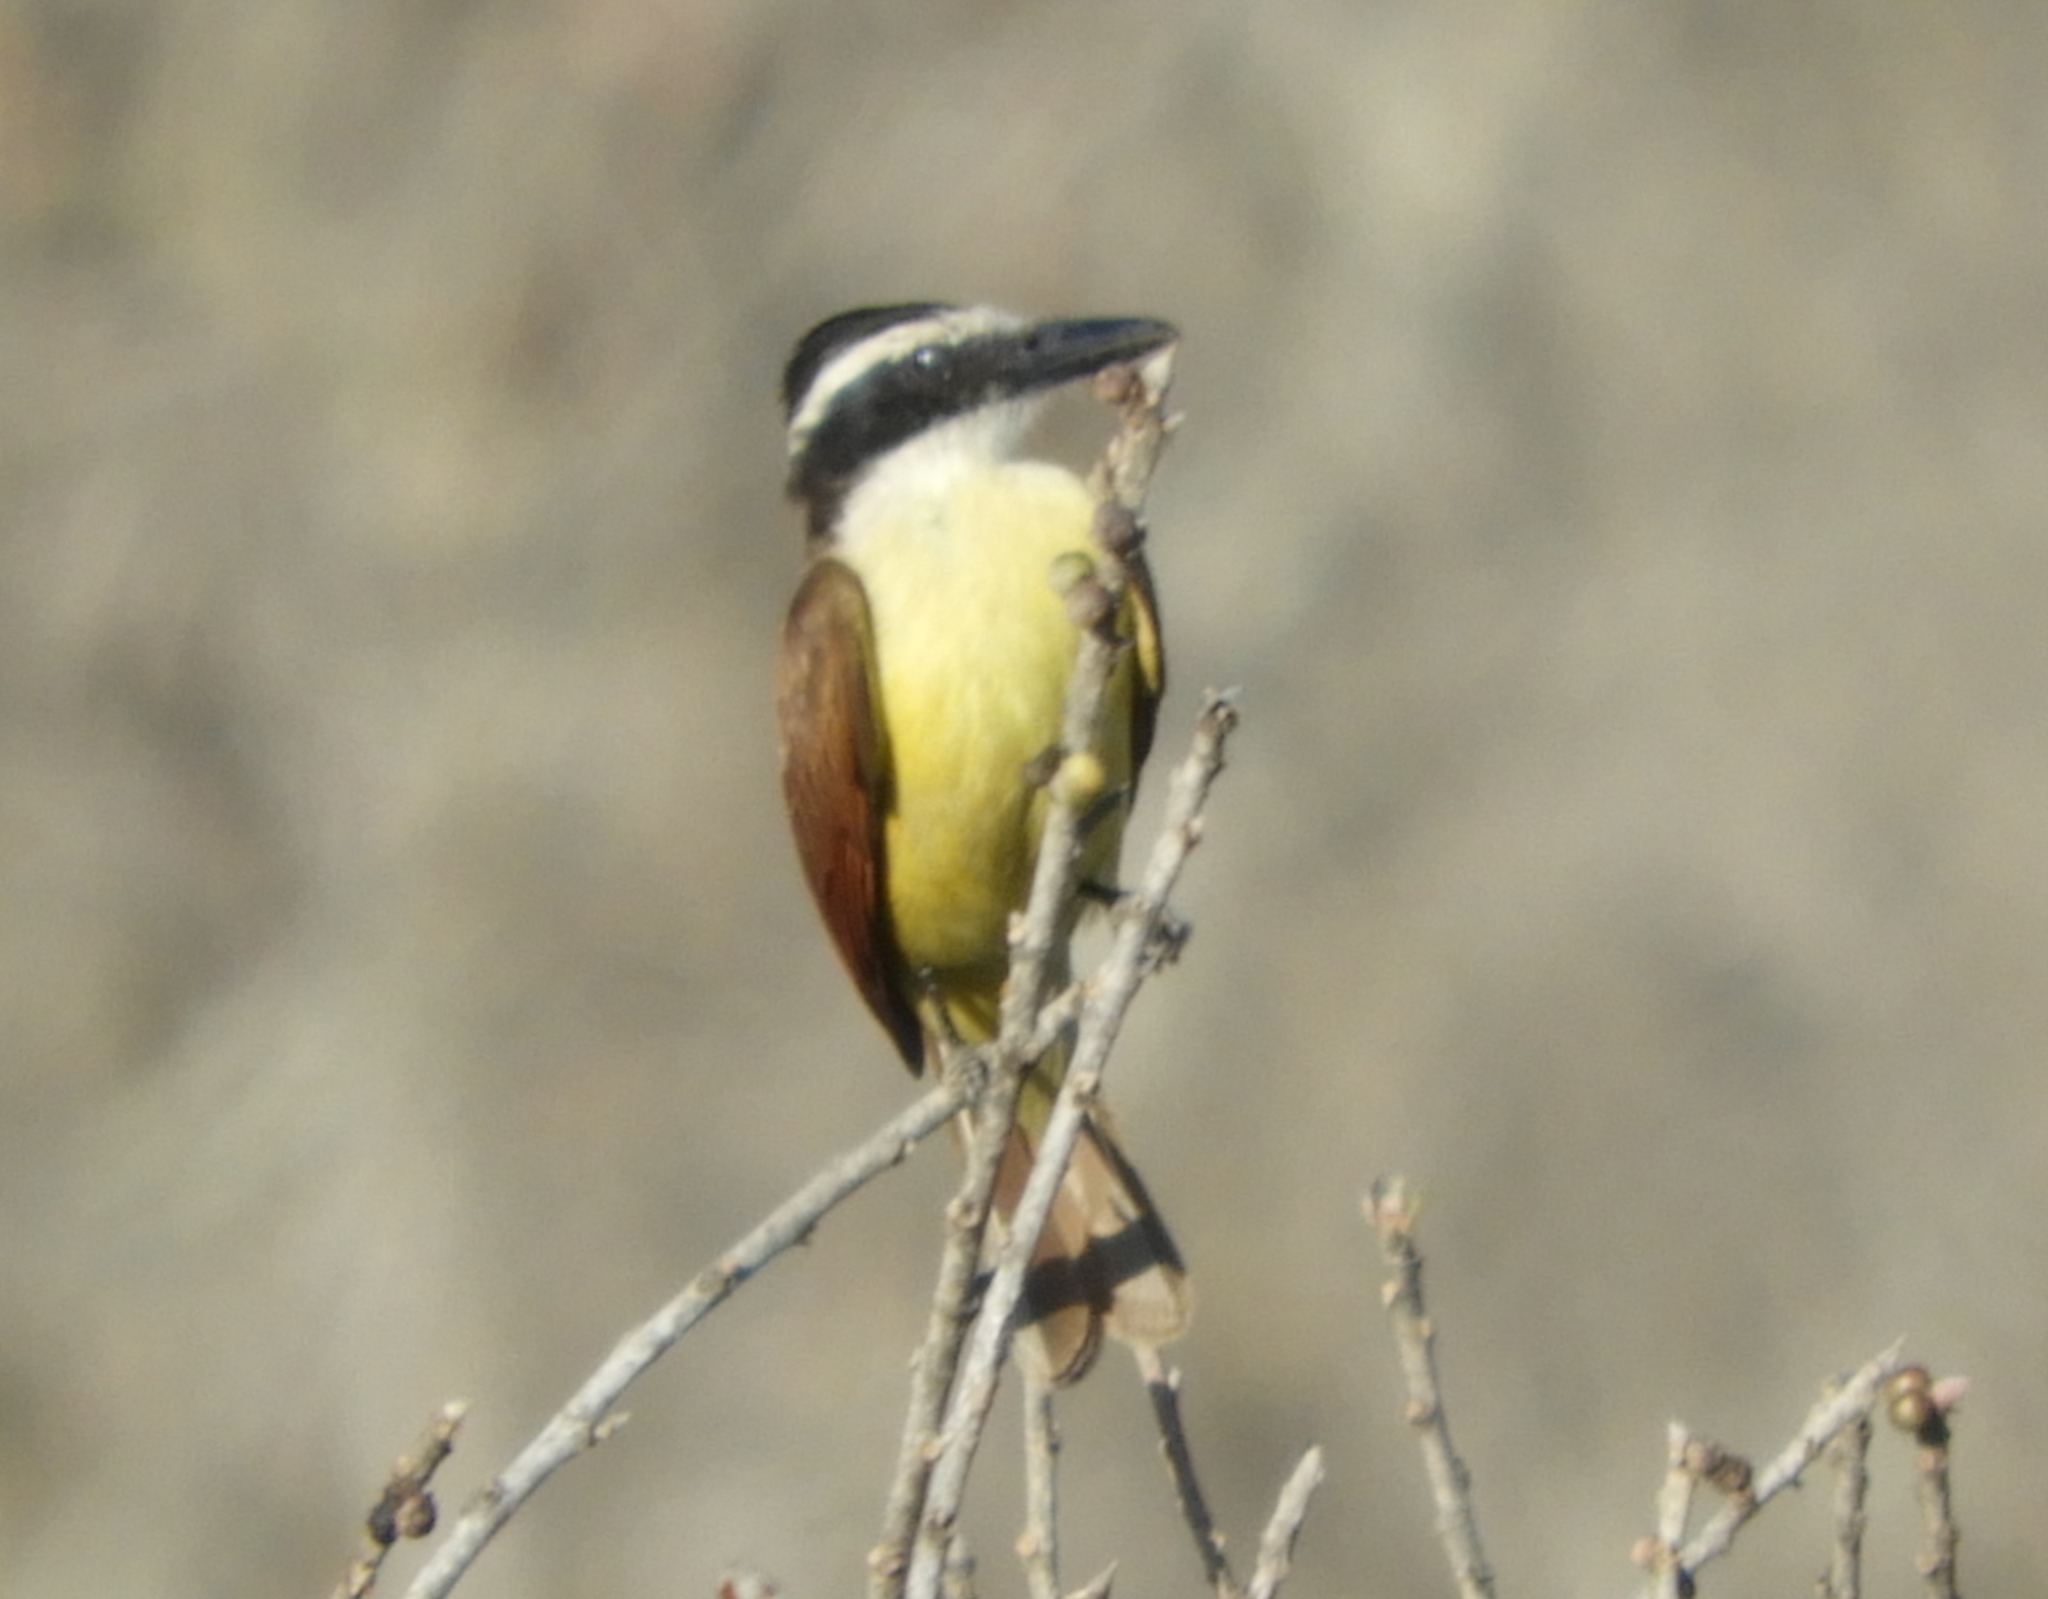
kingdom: Animalia
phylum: Chordata
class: Aves
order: Passeriformes
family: Tyrannidae
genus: Pitangus
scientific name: Pitangus sulphuratus
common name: Great kiskadee
